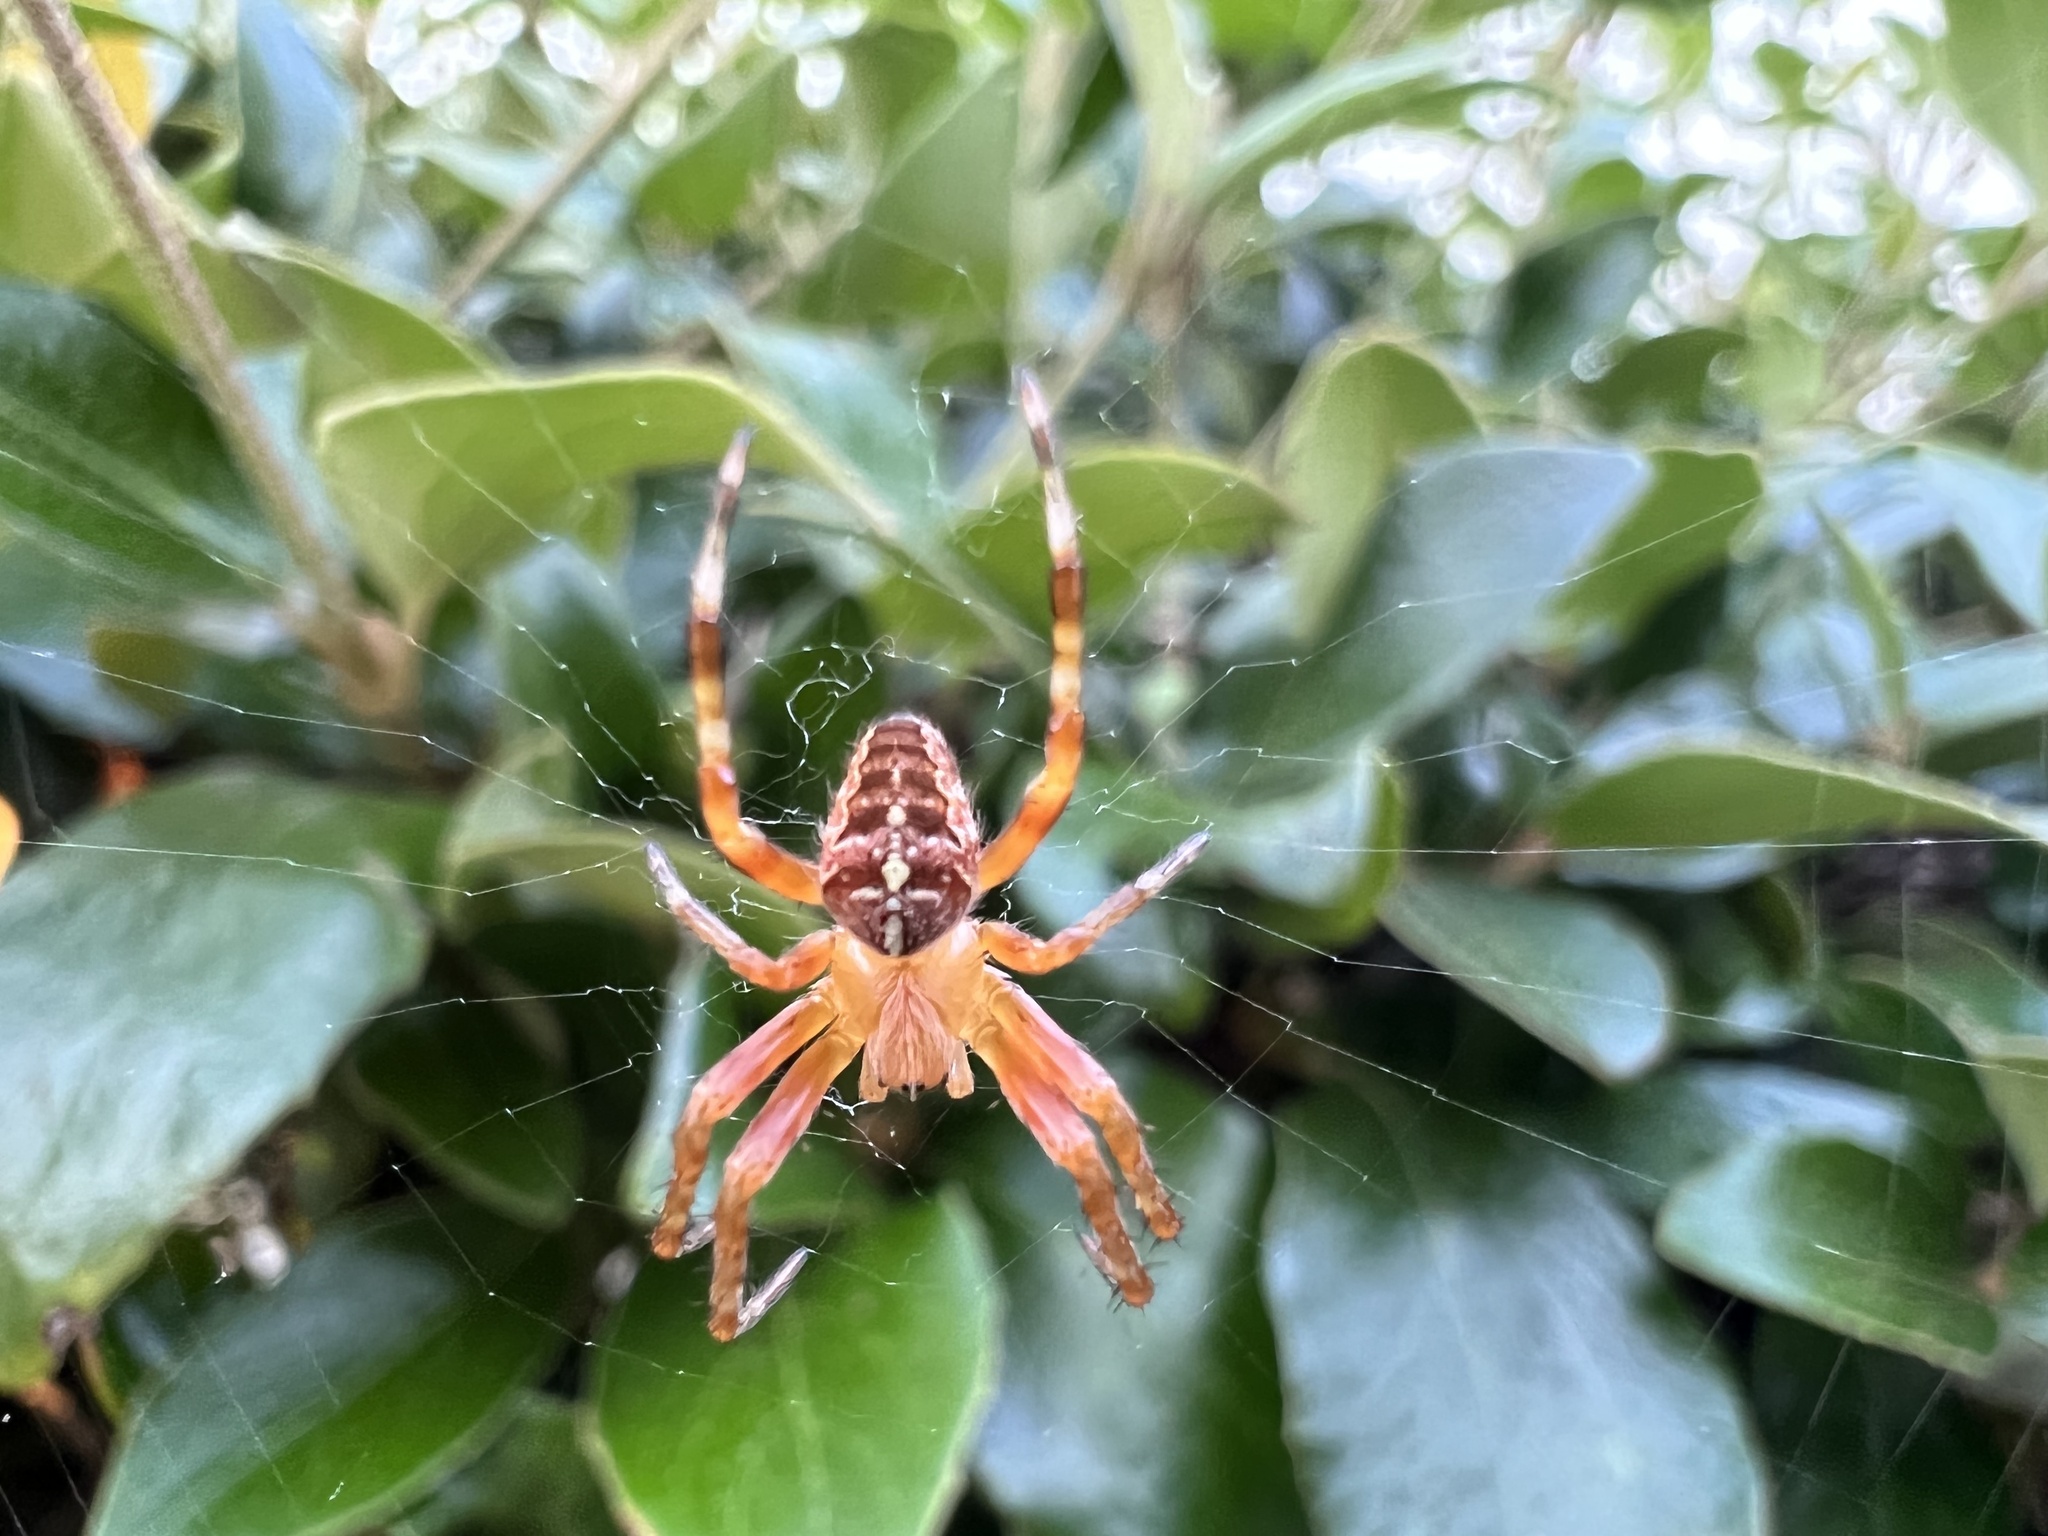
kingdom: Animalia
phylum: Arthropoda
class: Arachnida
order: Araneae
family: Araneidae
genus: Araneus
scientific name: Araneus diadematus
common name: Cross orbweaver
